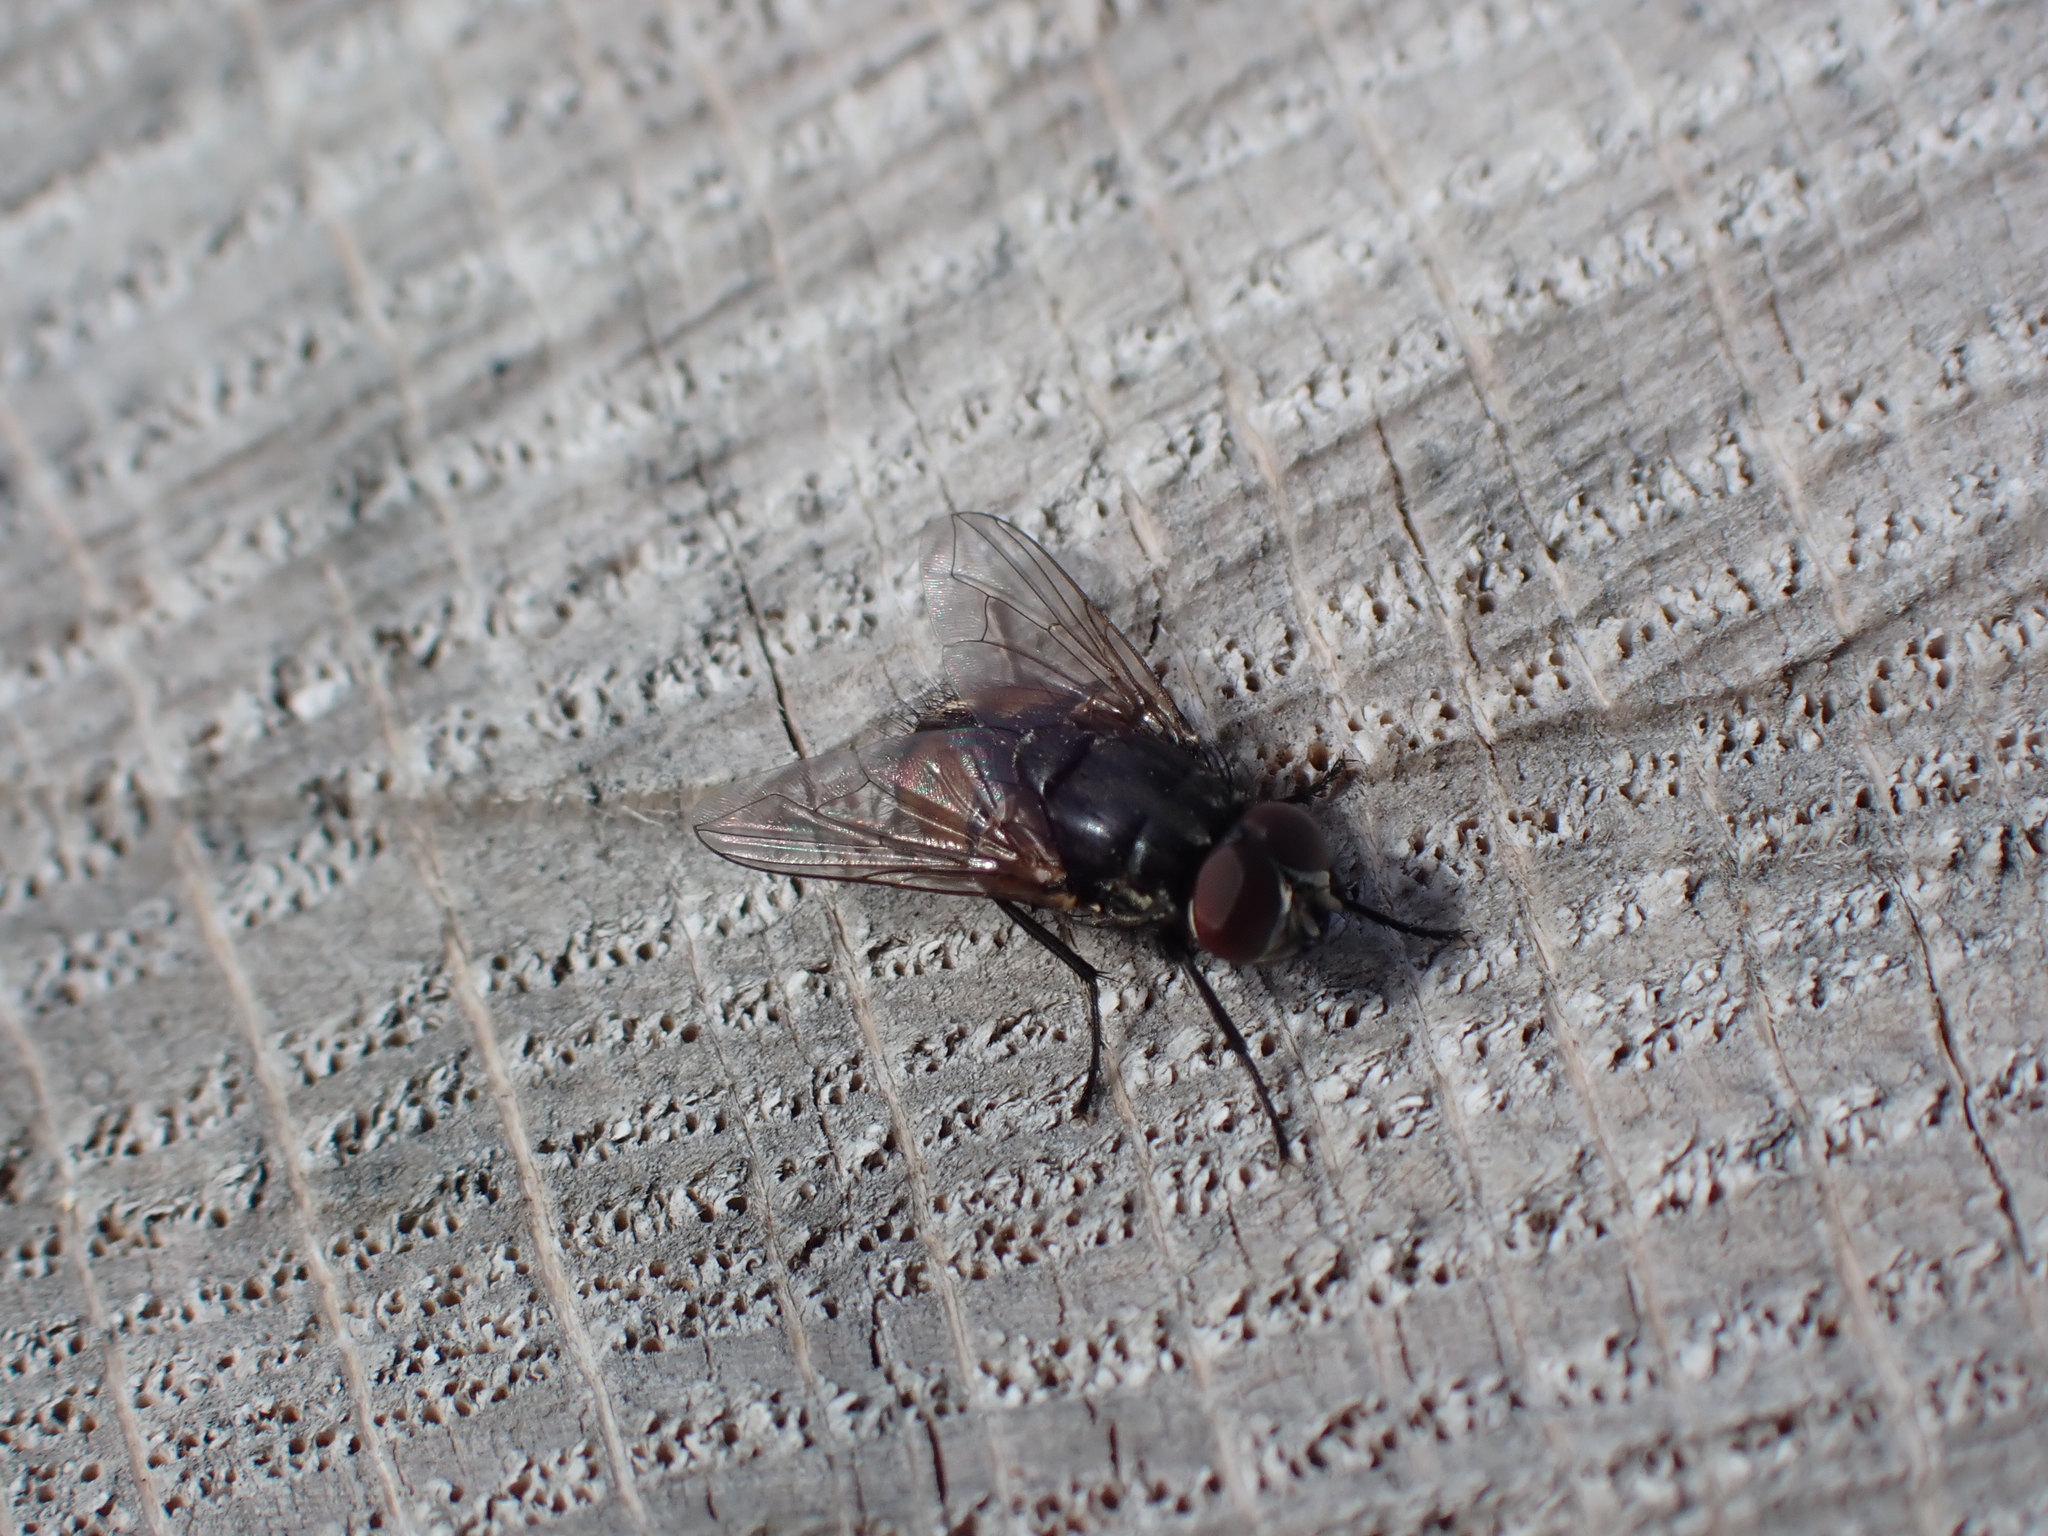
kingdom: Animalia
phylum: Arthropoda
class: Insecta
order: Diptera
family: Muscidae
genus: Musca
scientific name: Musca autumnalis
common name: Face fly
